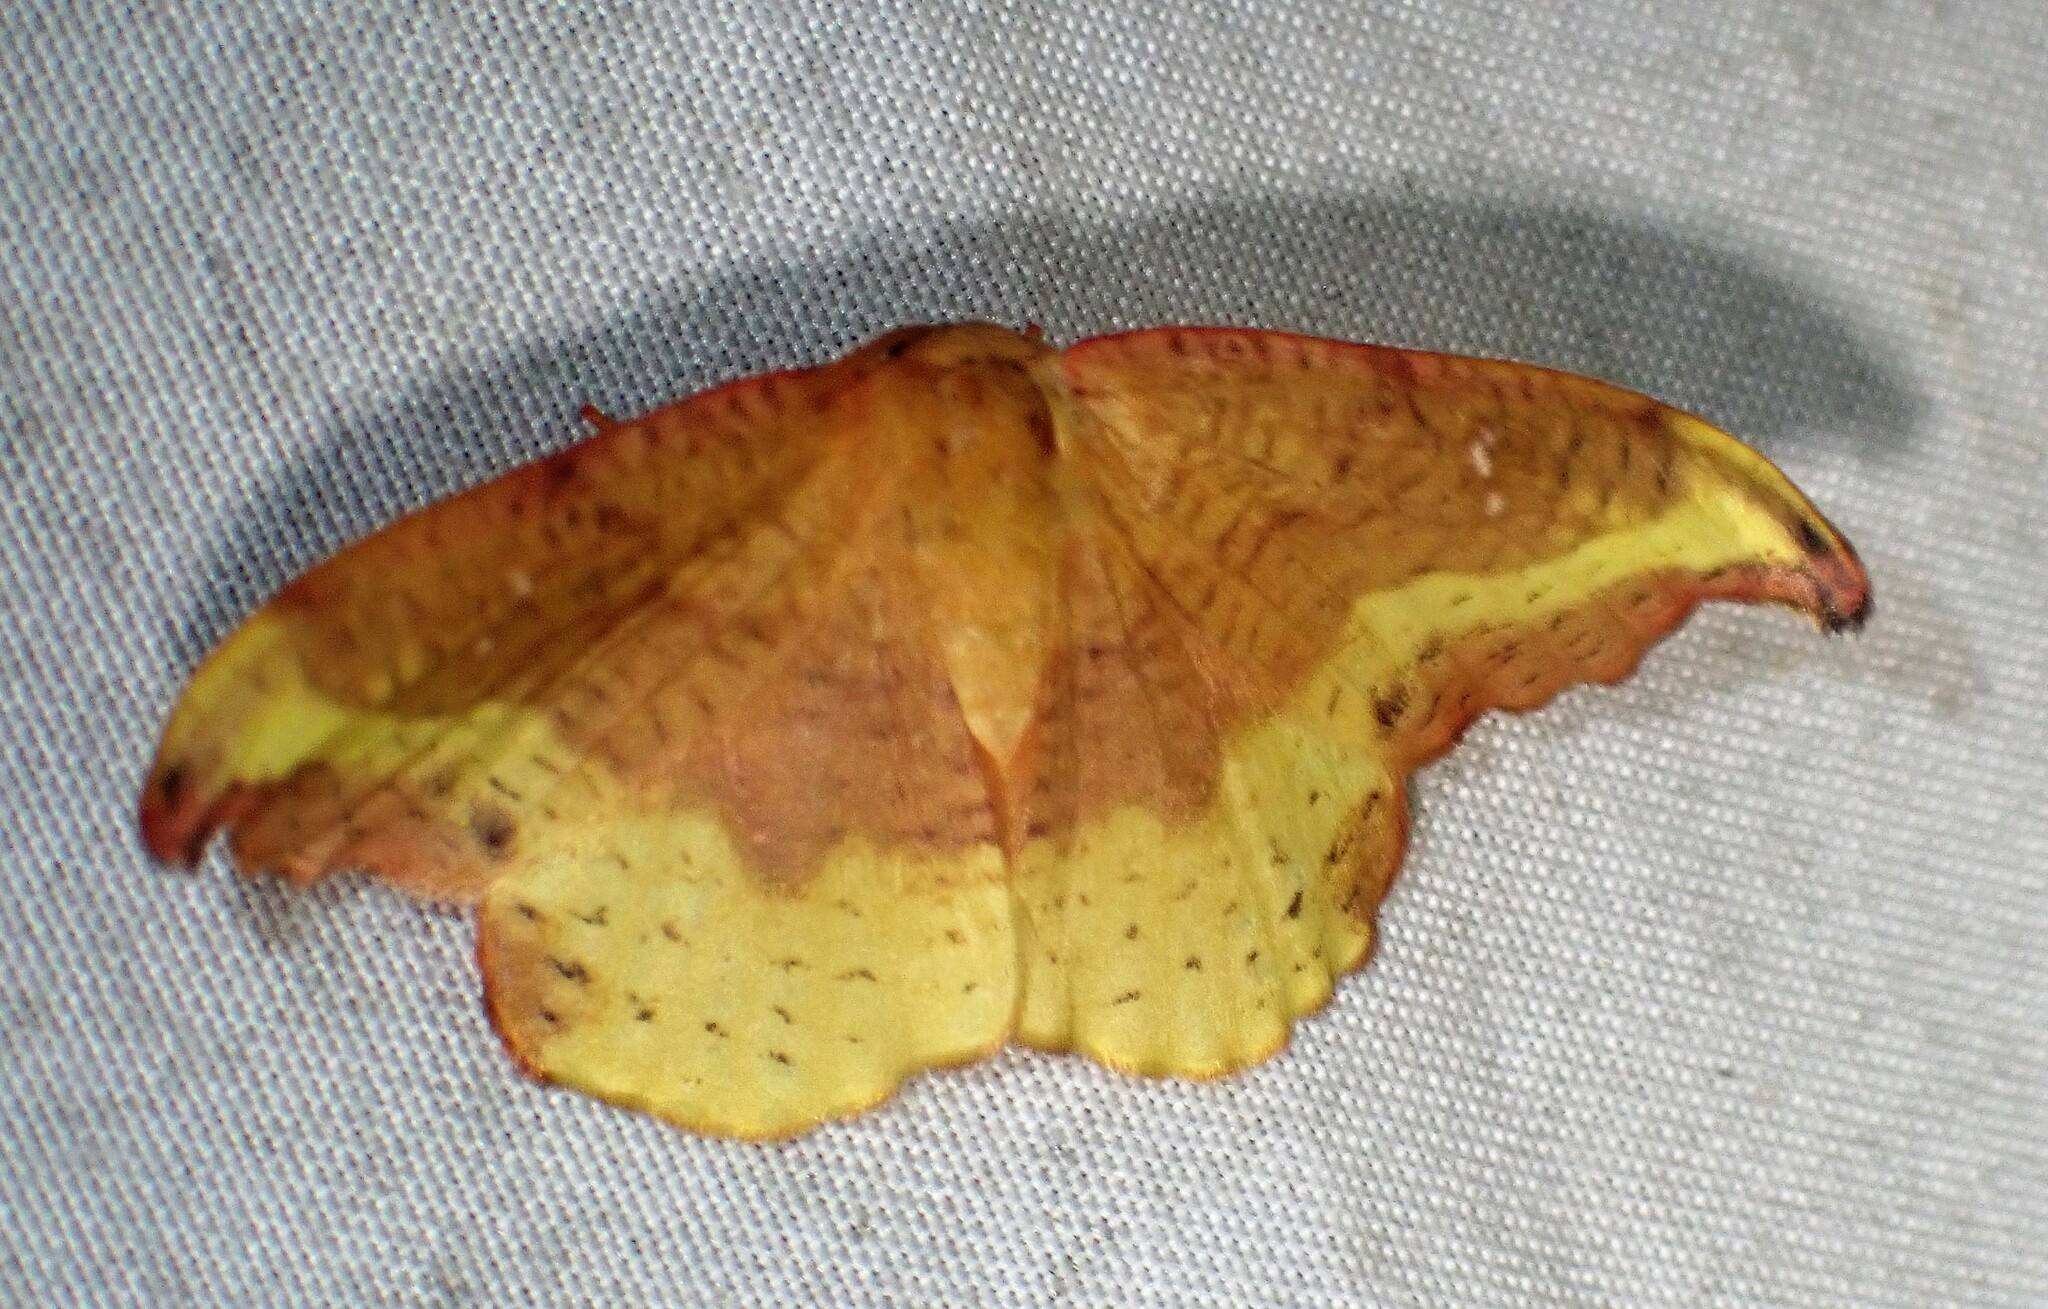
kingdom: Animalia
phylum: Arthropoda
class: Insecta
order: Lepidoptera
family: Drepanidae
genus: Oreta
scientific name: Oreta rosea
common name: Rose hooktip
